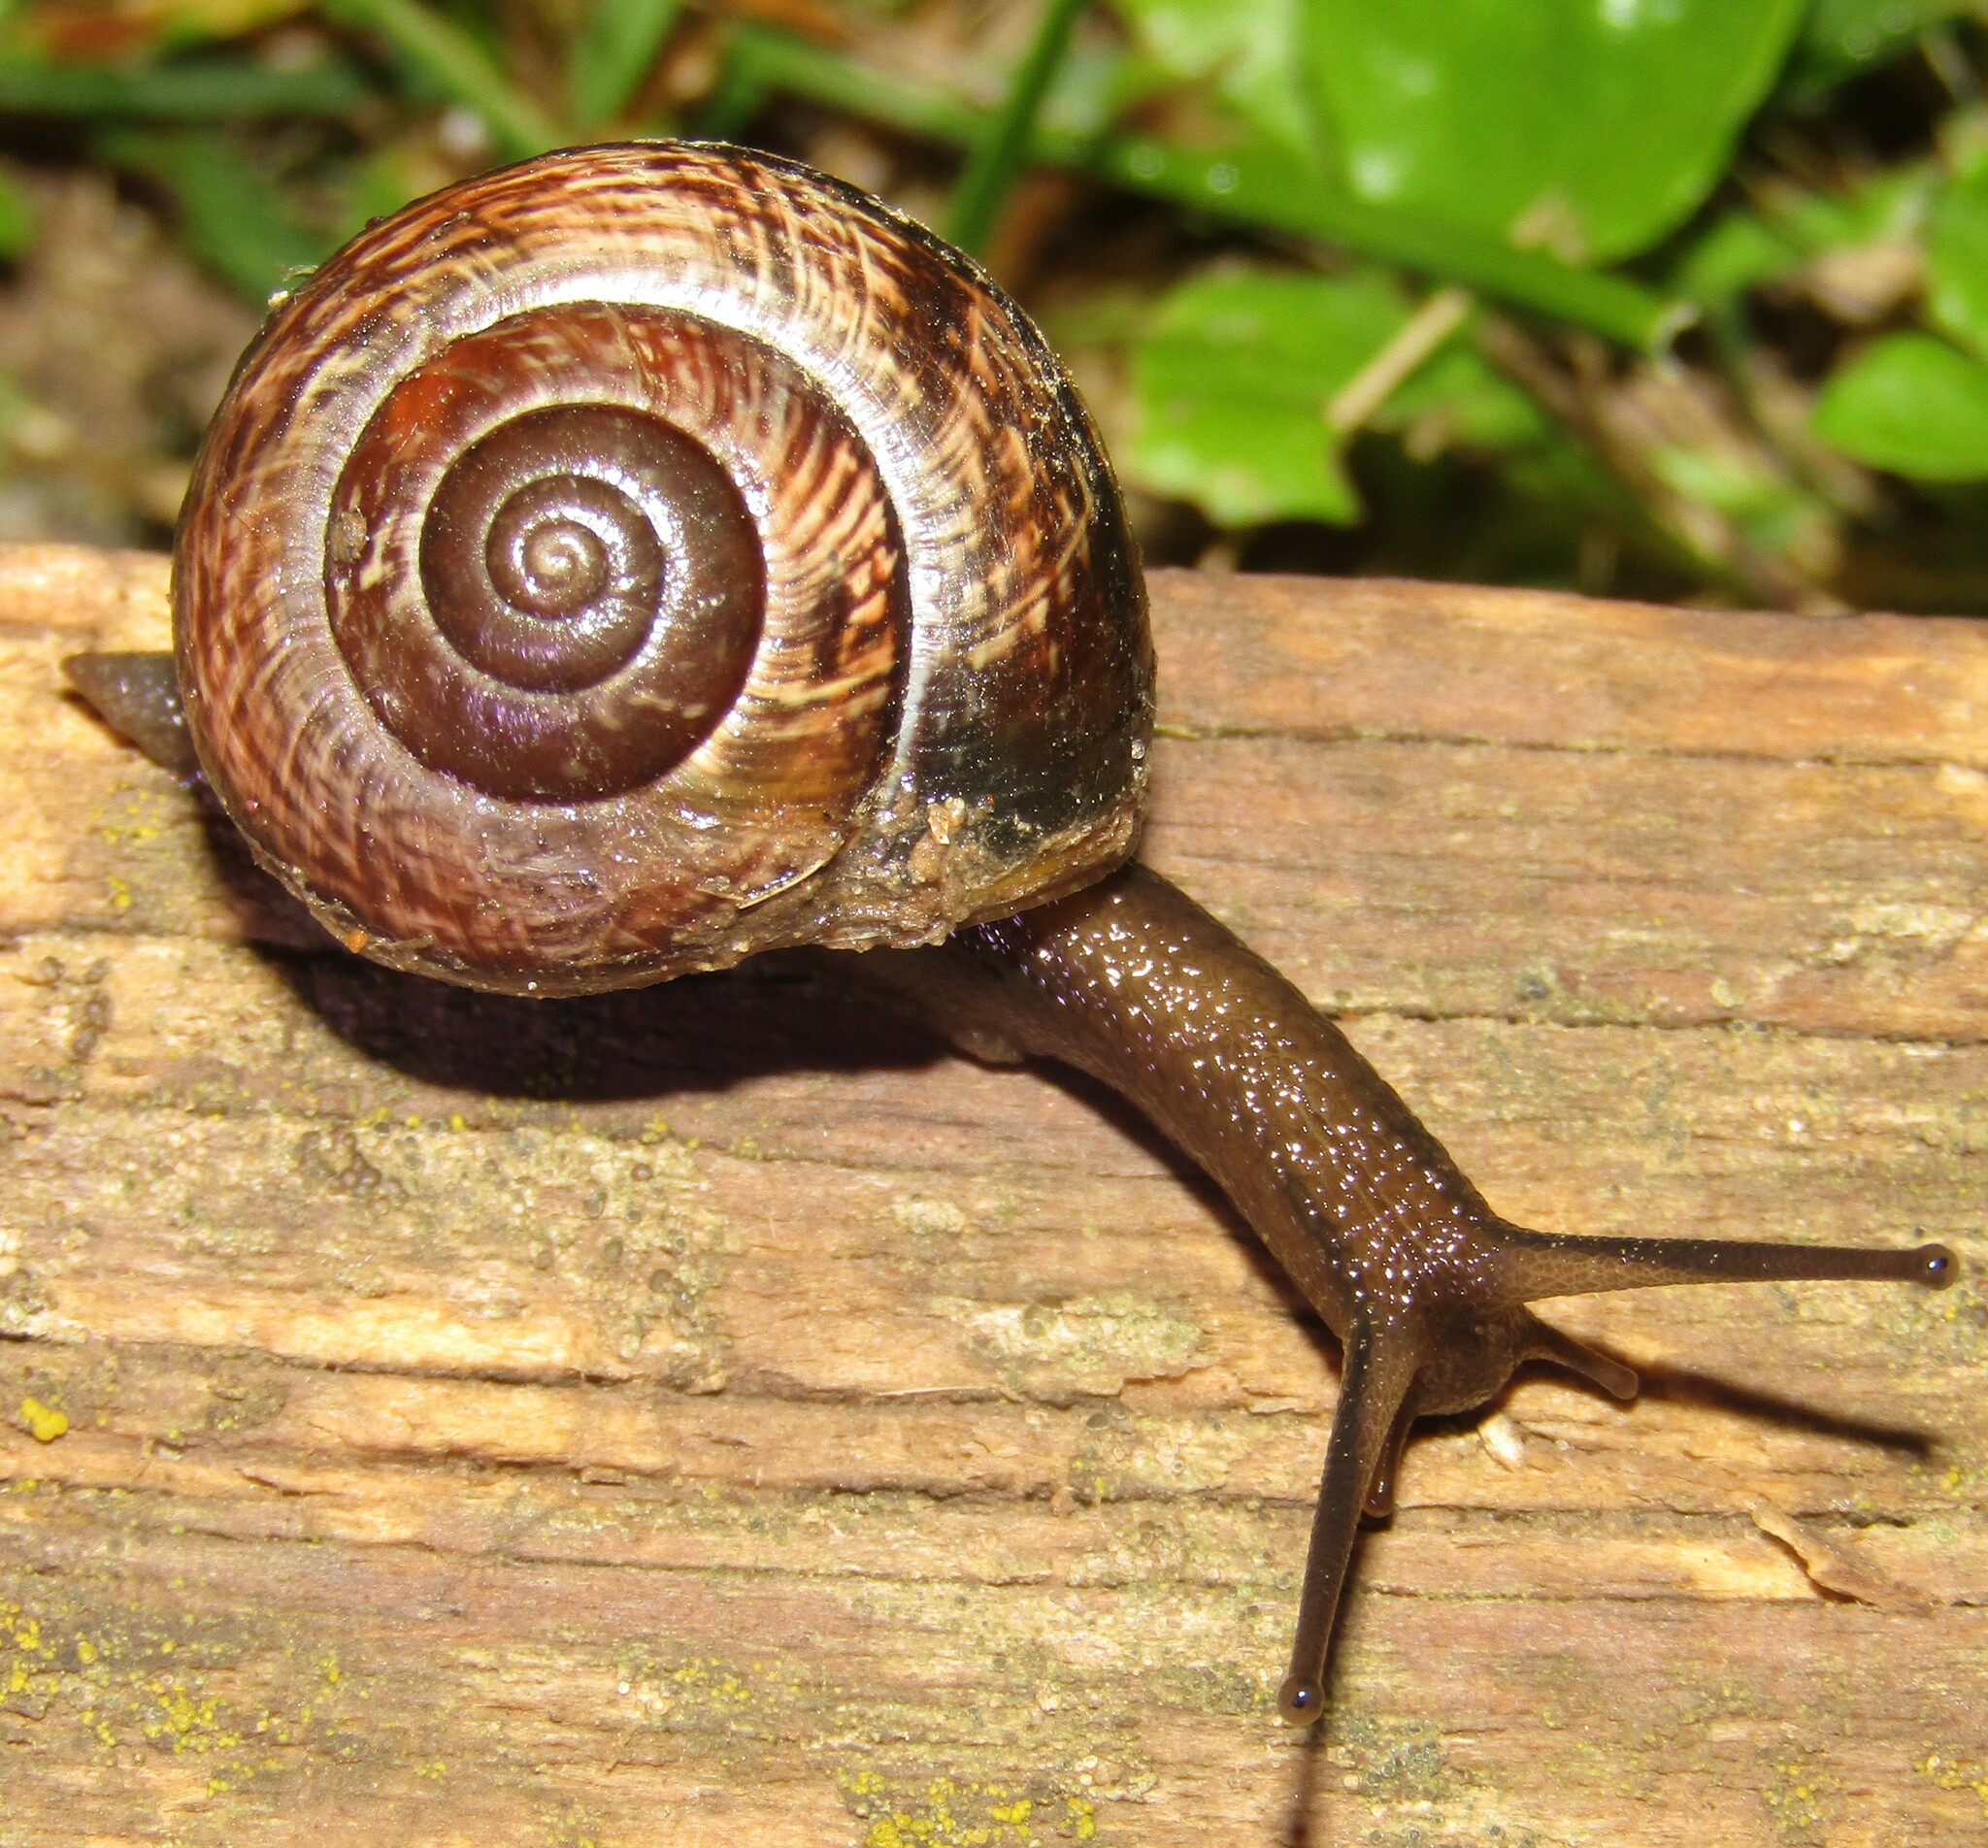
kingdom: Animalia
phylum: Mollusca
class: Gastropoda
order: Stylommatophora
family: Helicidae
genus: Arianta
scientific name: Arianta arbustorum
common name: Copse snail
